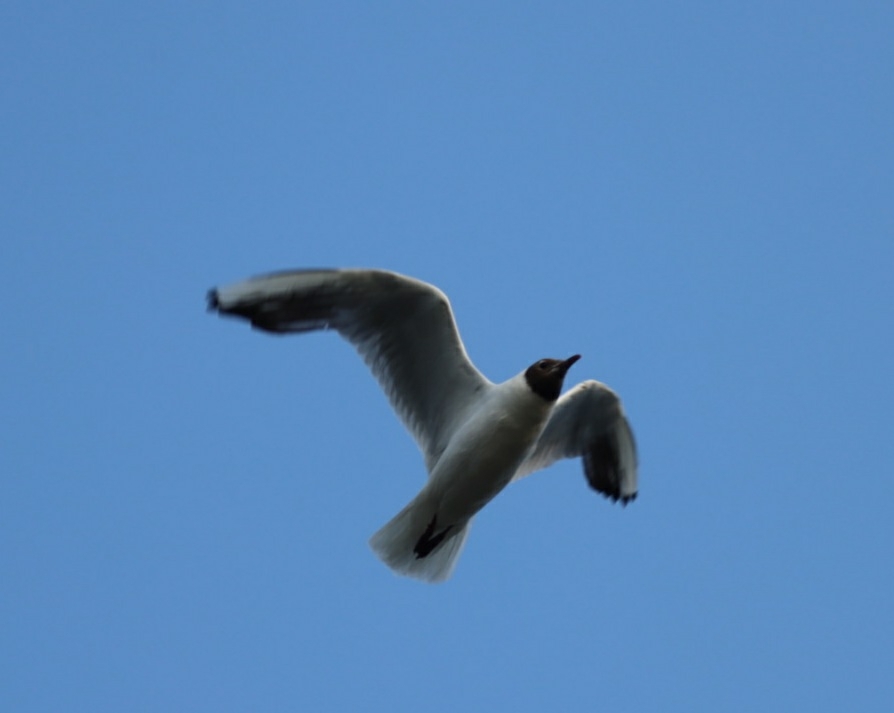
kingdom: Animalia
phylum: Chordata
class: Aves
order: Charadriiformes
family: Laridae
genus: Chroicocephalus
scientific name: Chroicocephalus ridibundus
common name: Black-headed gull
